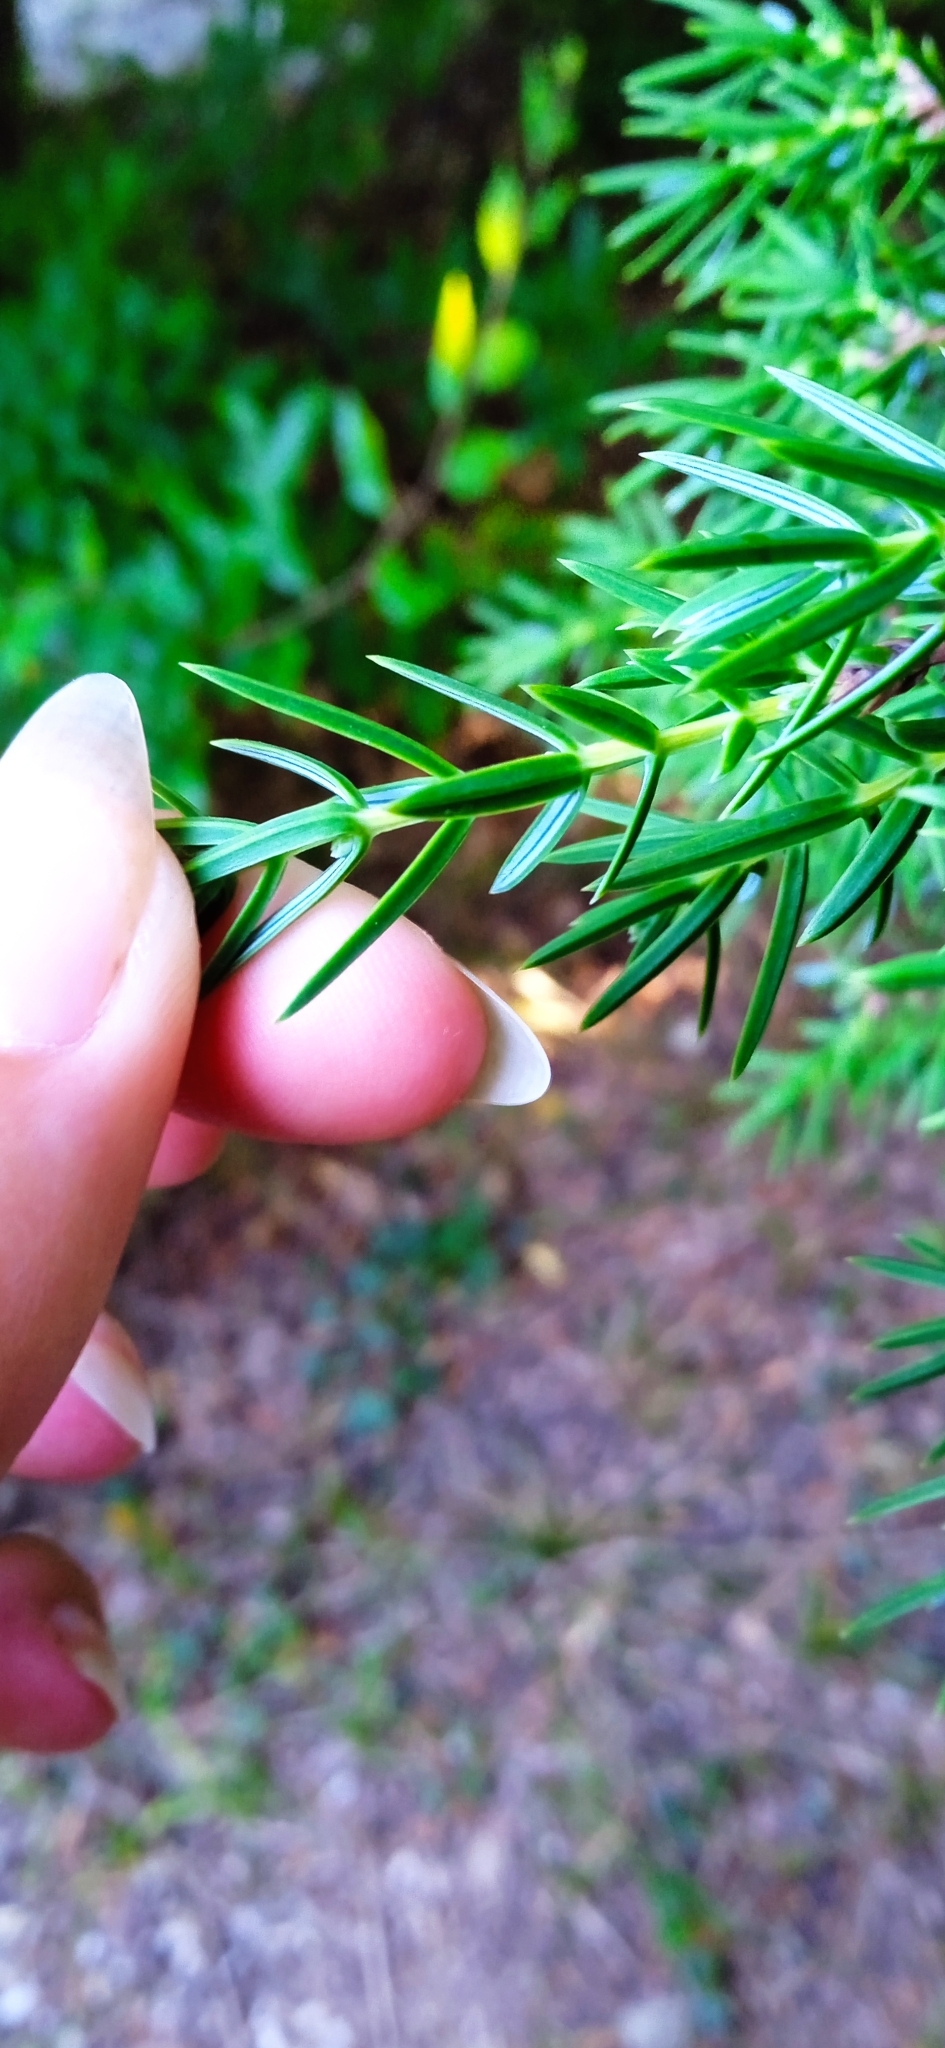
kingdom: Plantae
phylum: Tracheophyta
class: Pinopsida
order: Pinales
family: Cupressaceae
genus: Juniperus
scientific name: Juniperus oxycedrus
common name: Prickly juniper
